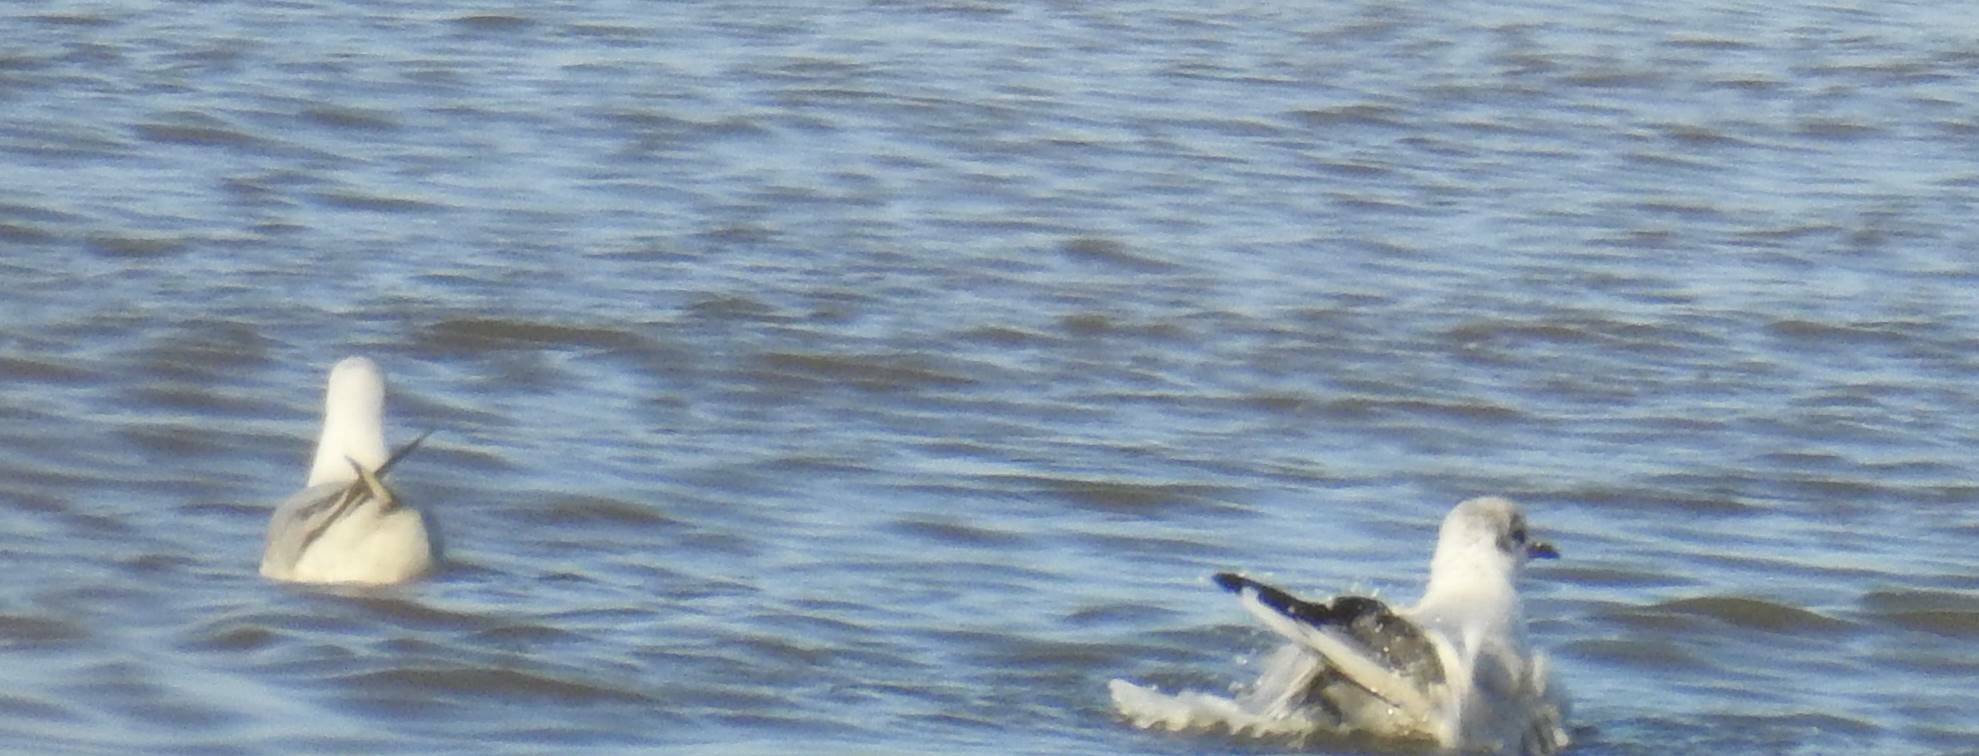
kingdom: Animalia
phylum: Chordata
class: Aves
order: Charadriiformes
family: Laridae
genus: Chroicocephalus
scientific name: Chroicocephalus ridibundus
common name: Black-headed gull
